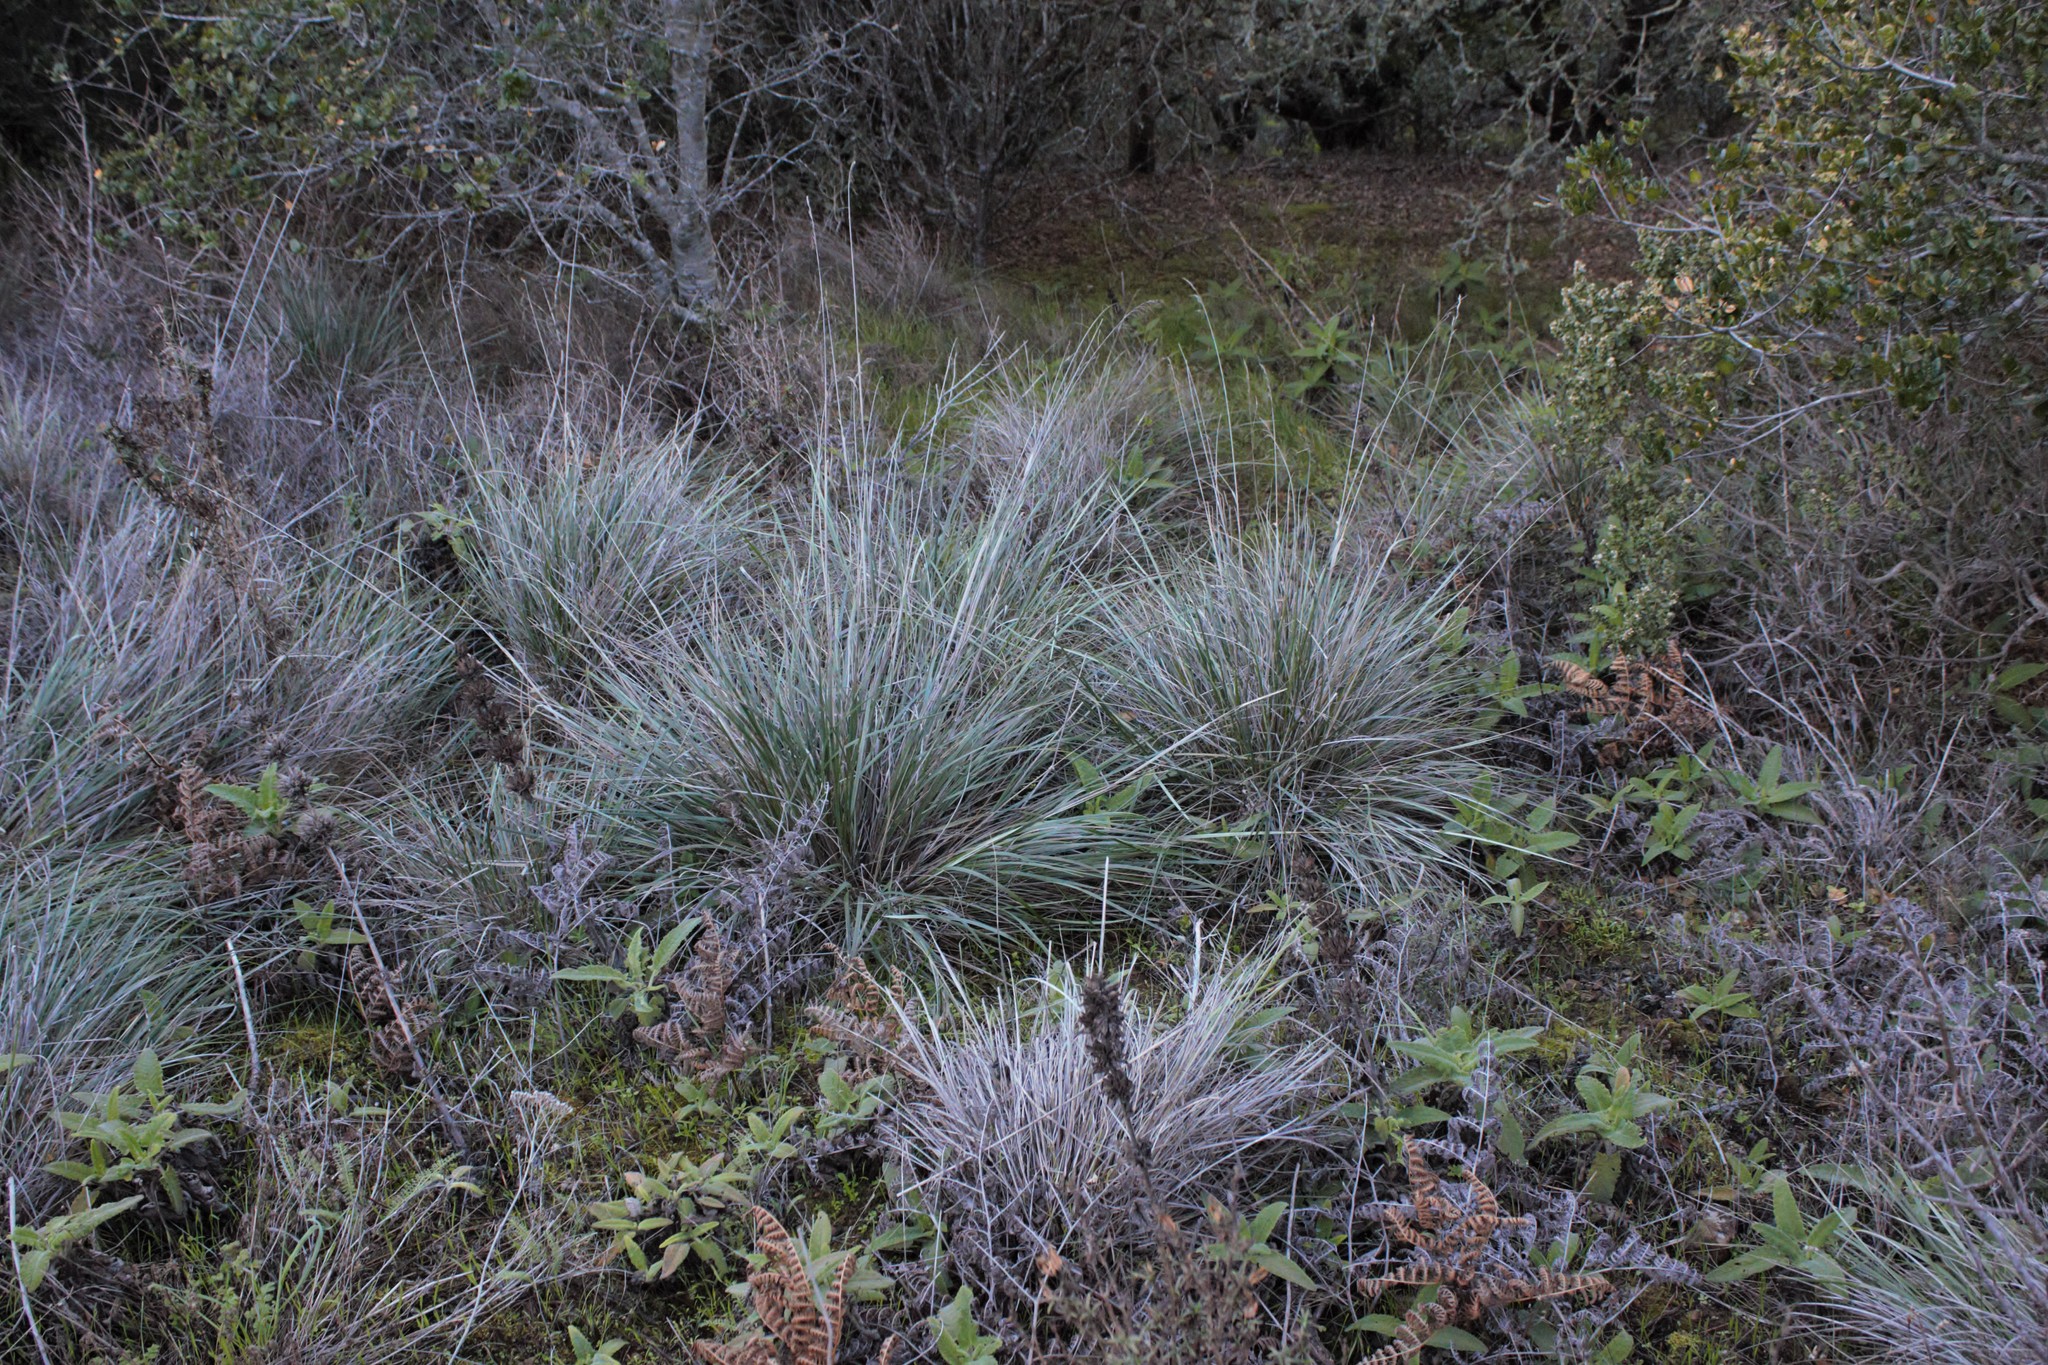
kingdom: Plantae
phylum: Tracheophyta
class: Liliopsida
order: Poales
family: Poaceae
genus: Festuca
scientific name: Festuca californica
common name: California fescue
